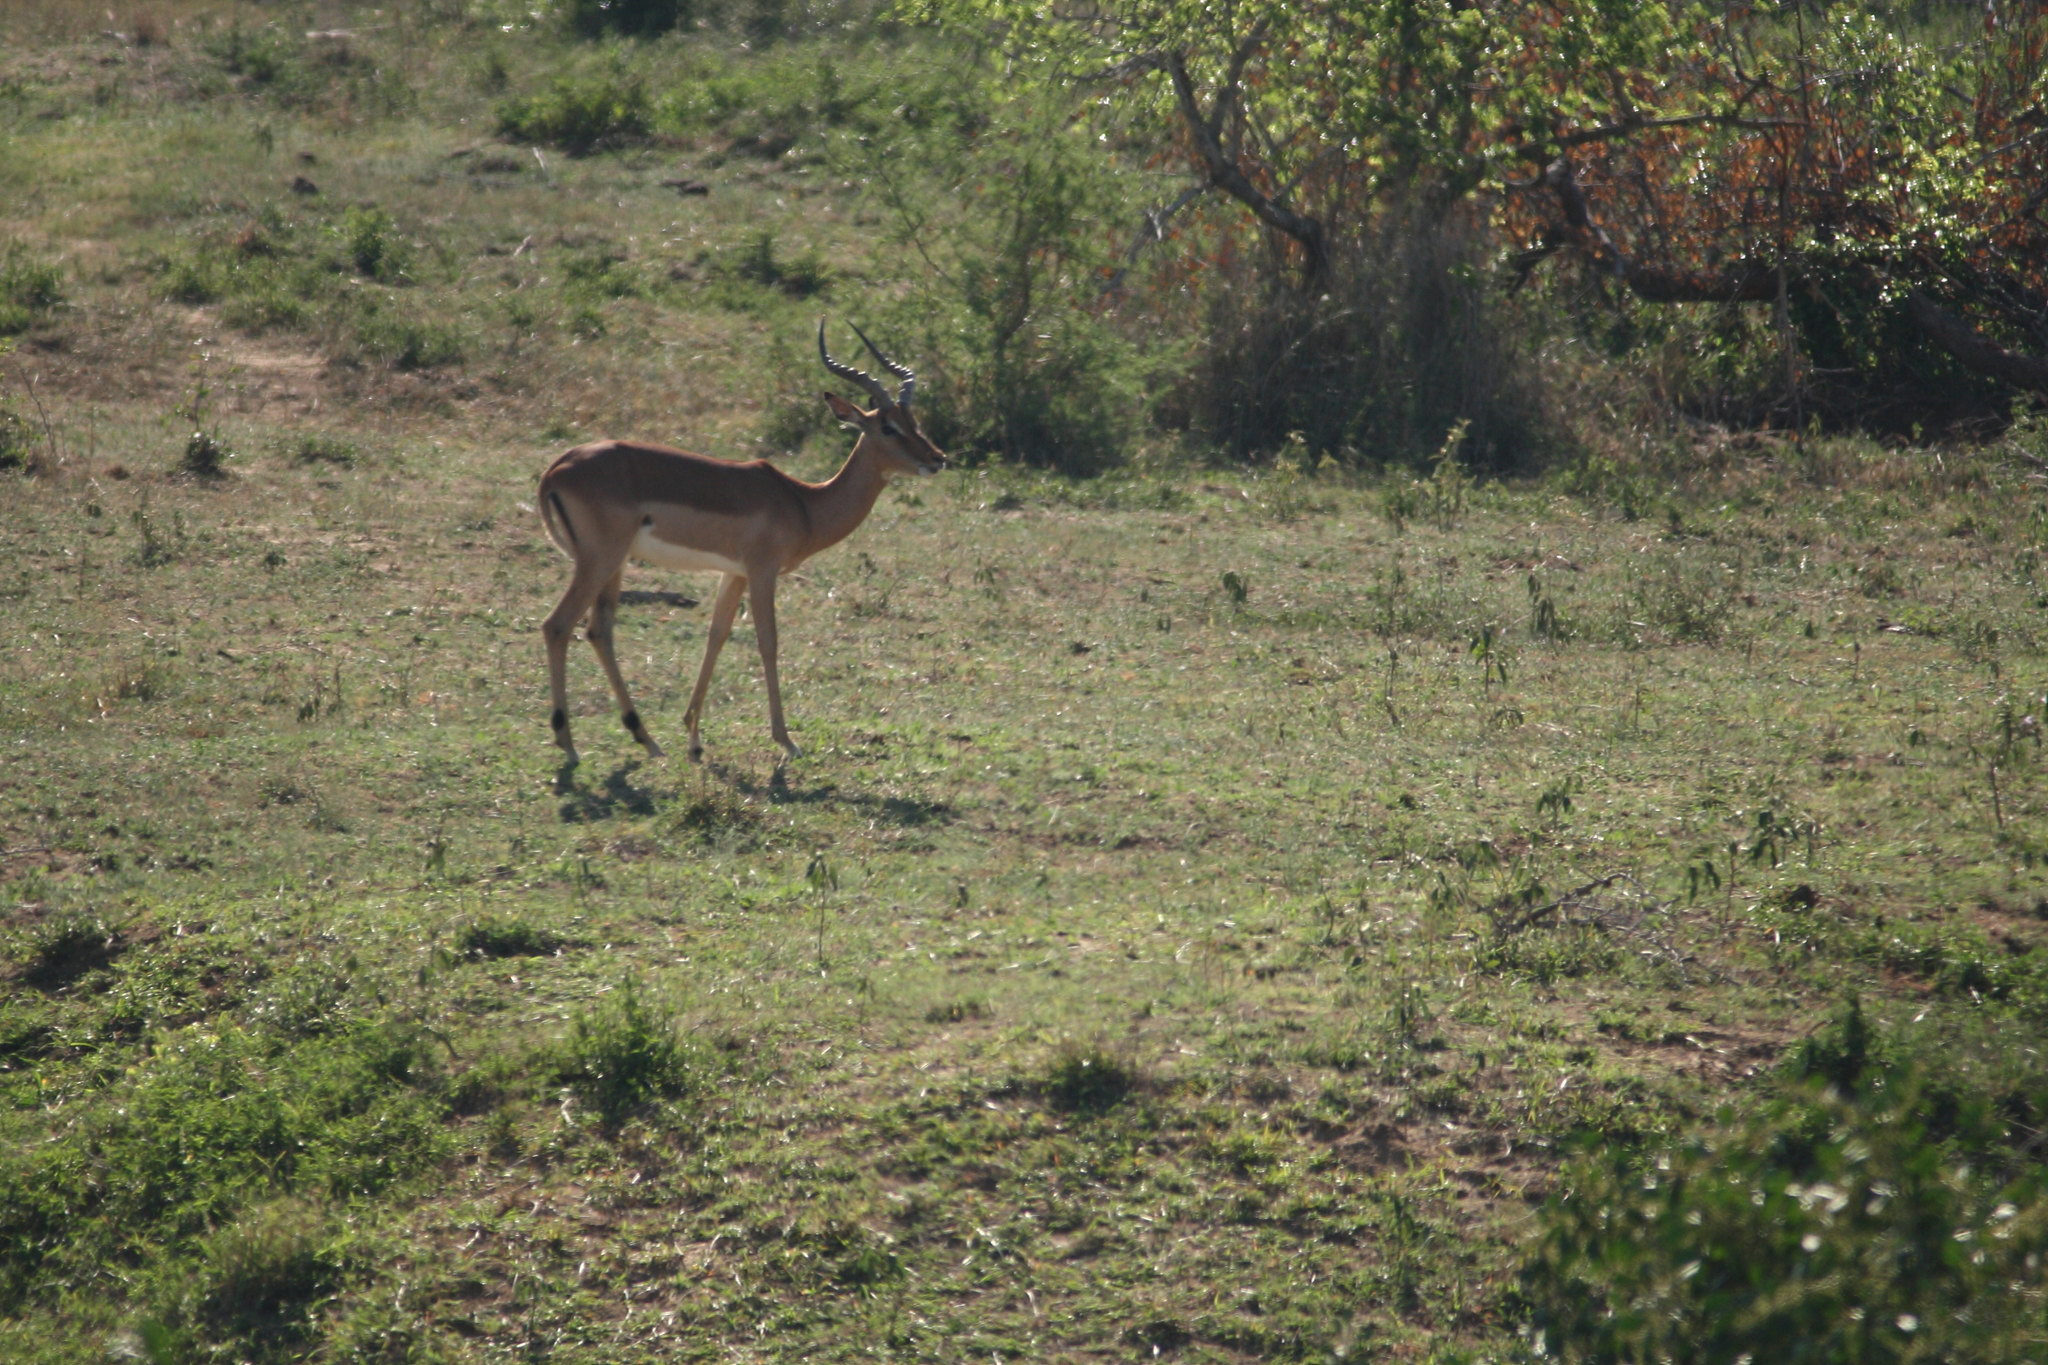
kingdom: Animalia
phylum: Chordata
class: Mammalia
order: Artiodactyla
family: Bovidae
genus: Aepyceros
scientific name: Aepyceros melampus
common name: Impala
